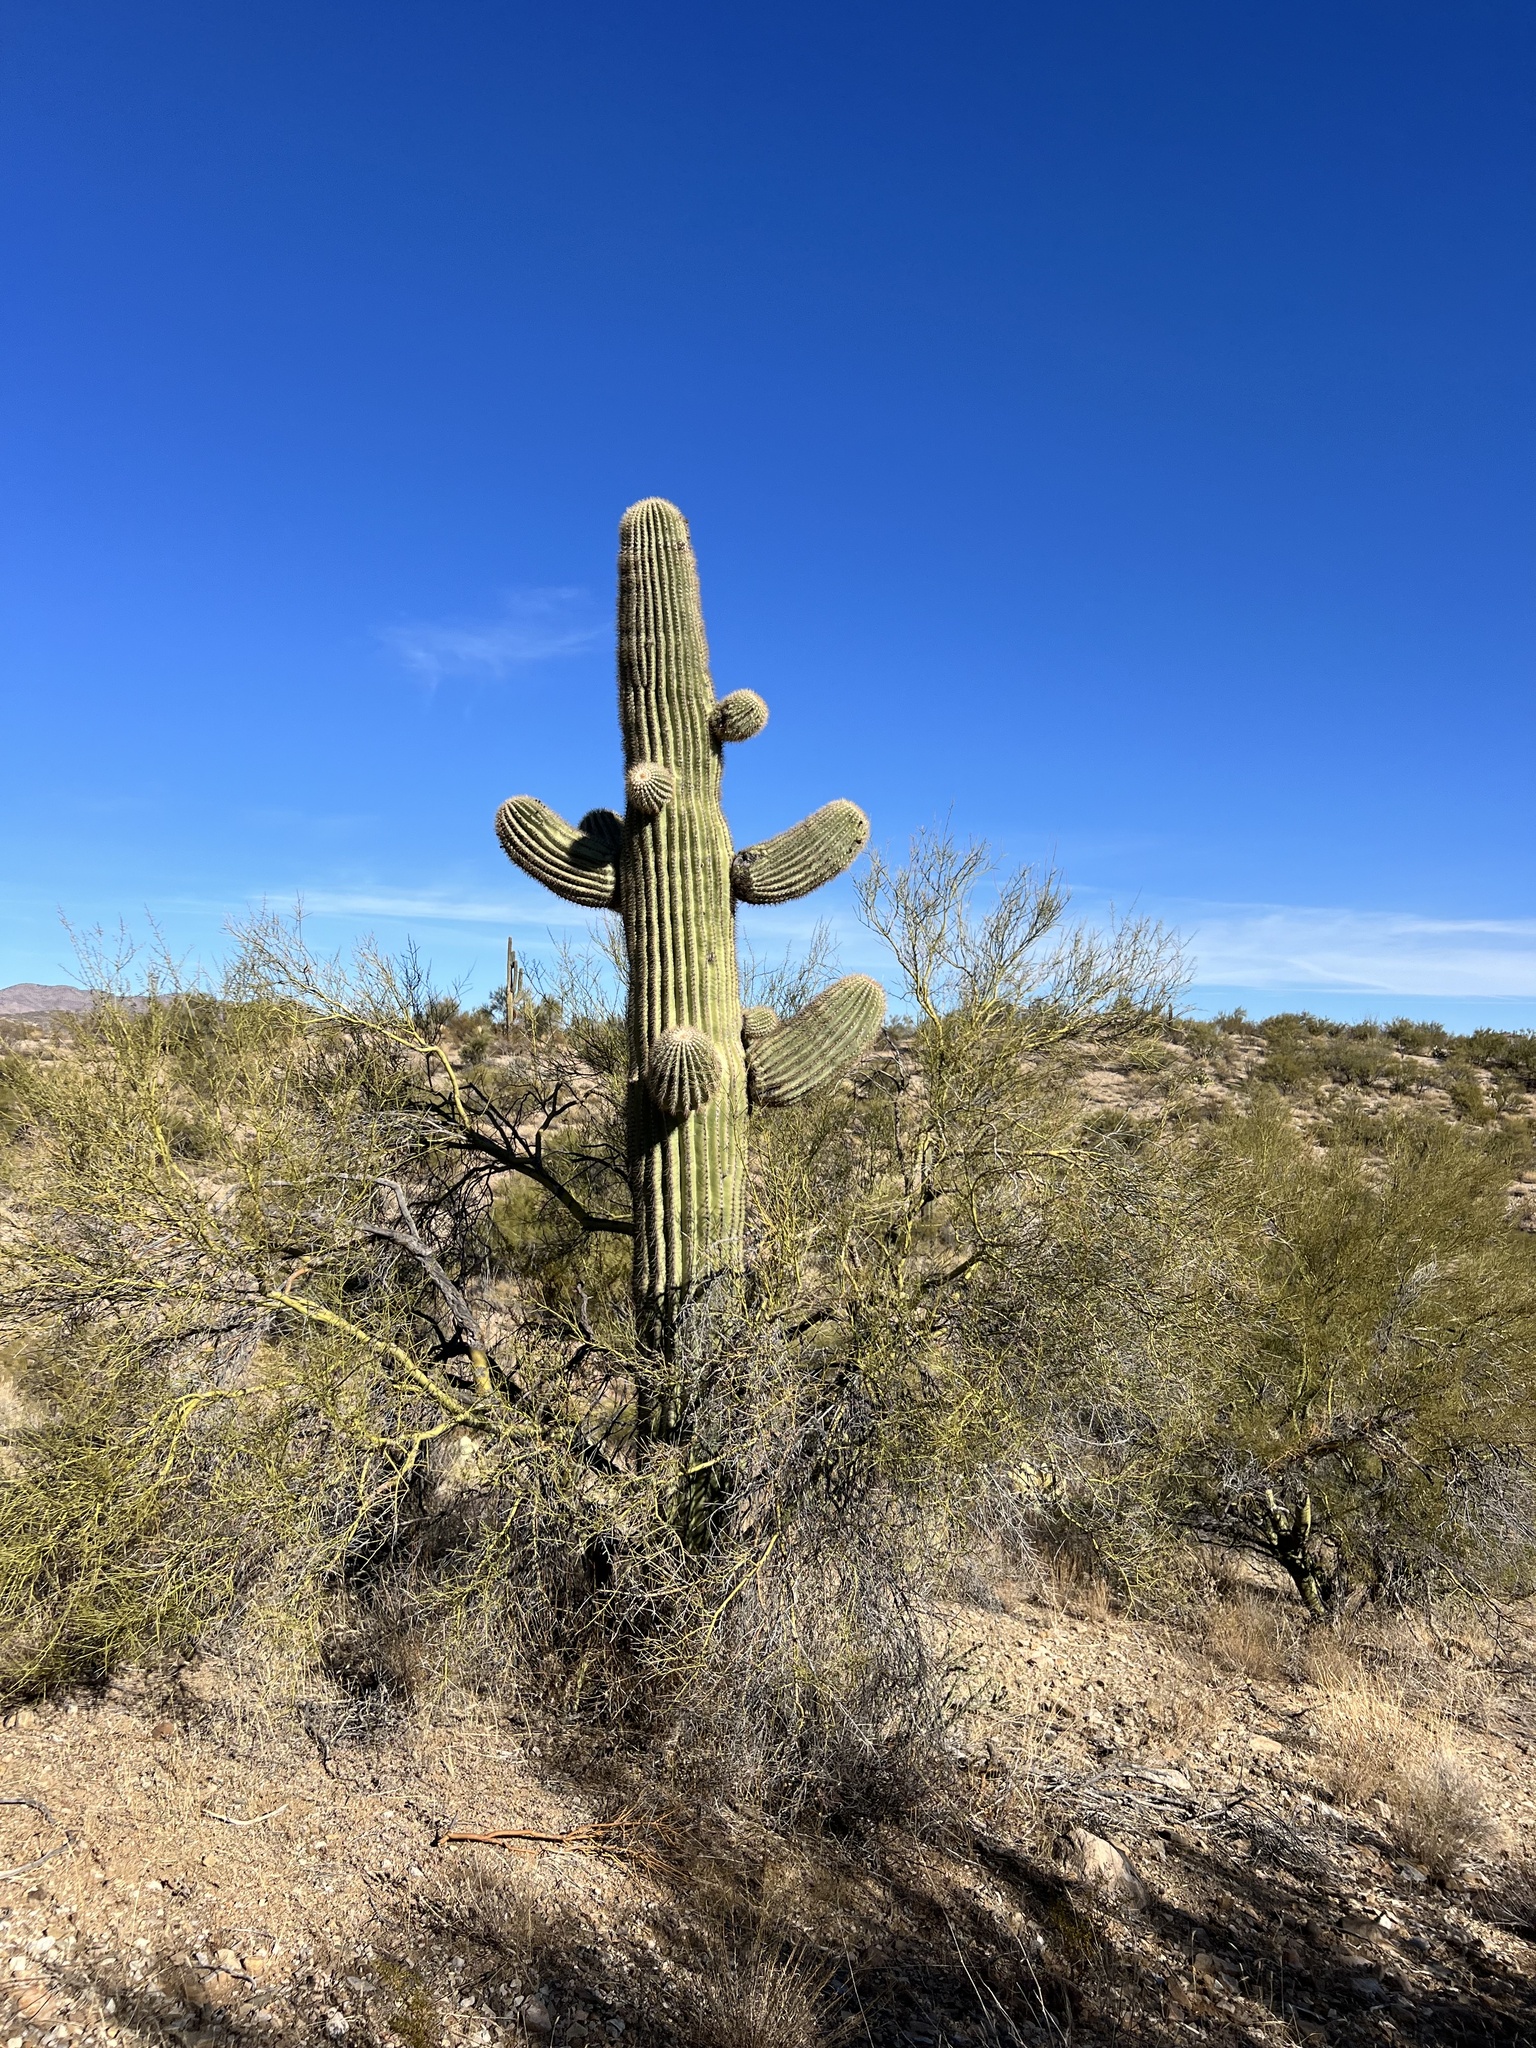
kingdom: Plantae
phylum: Tracheophyta
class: Magnoliopsida
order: Caryophyllales
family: Cactaceae
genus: Carnegiea
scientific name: Carnegiea gigantea
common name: Saguaro
